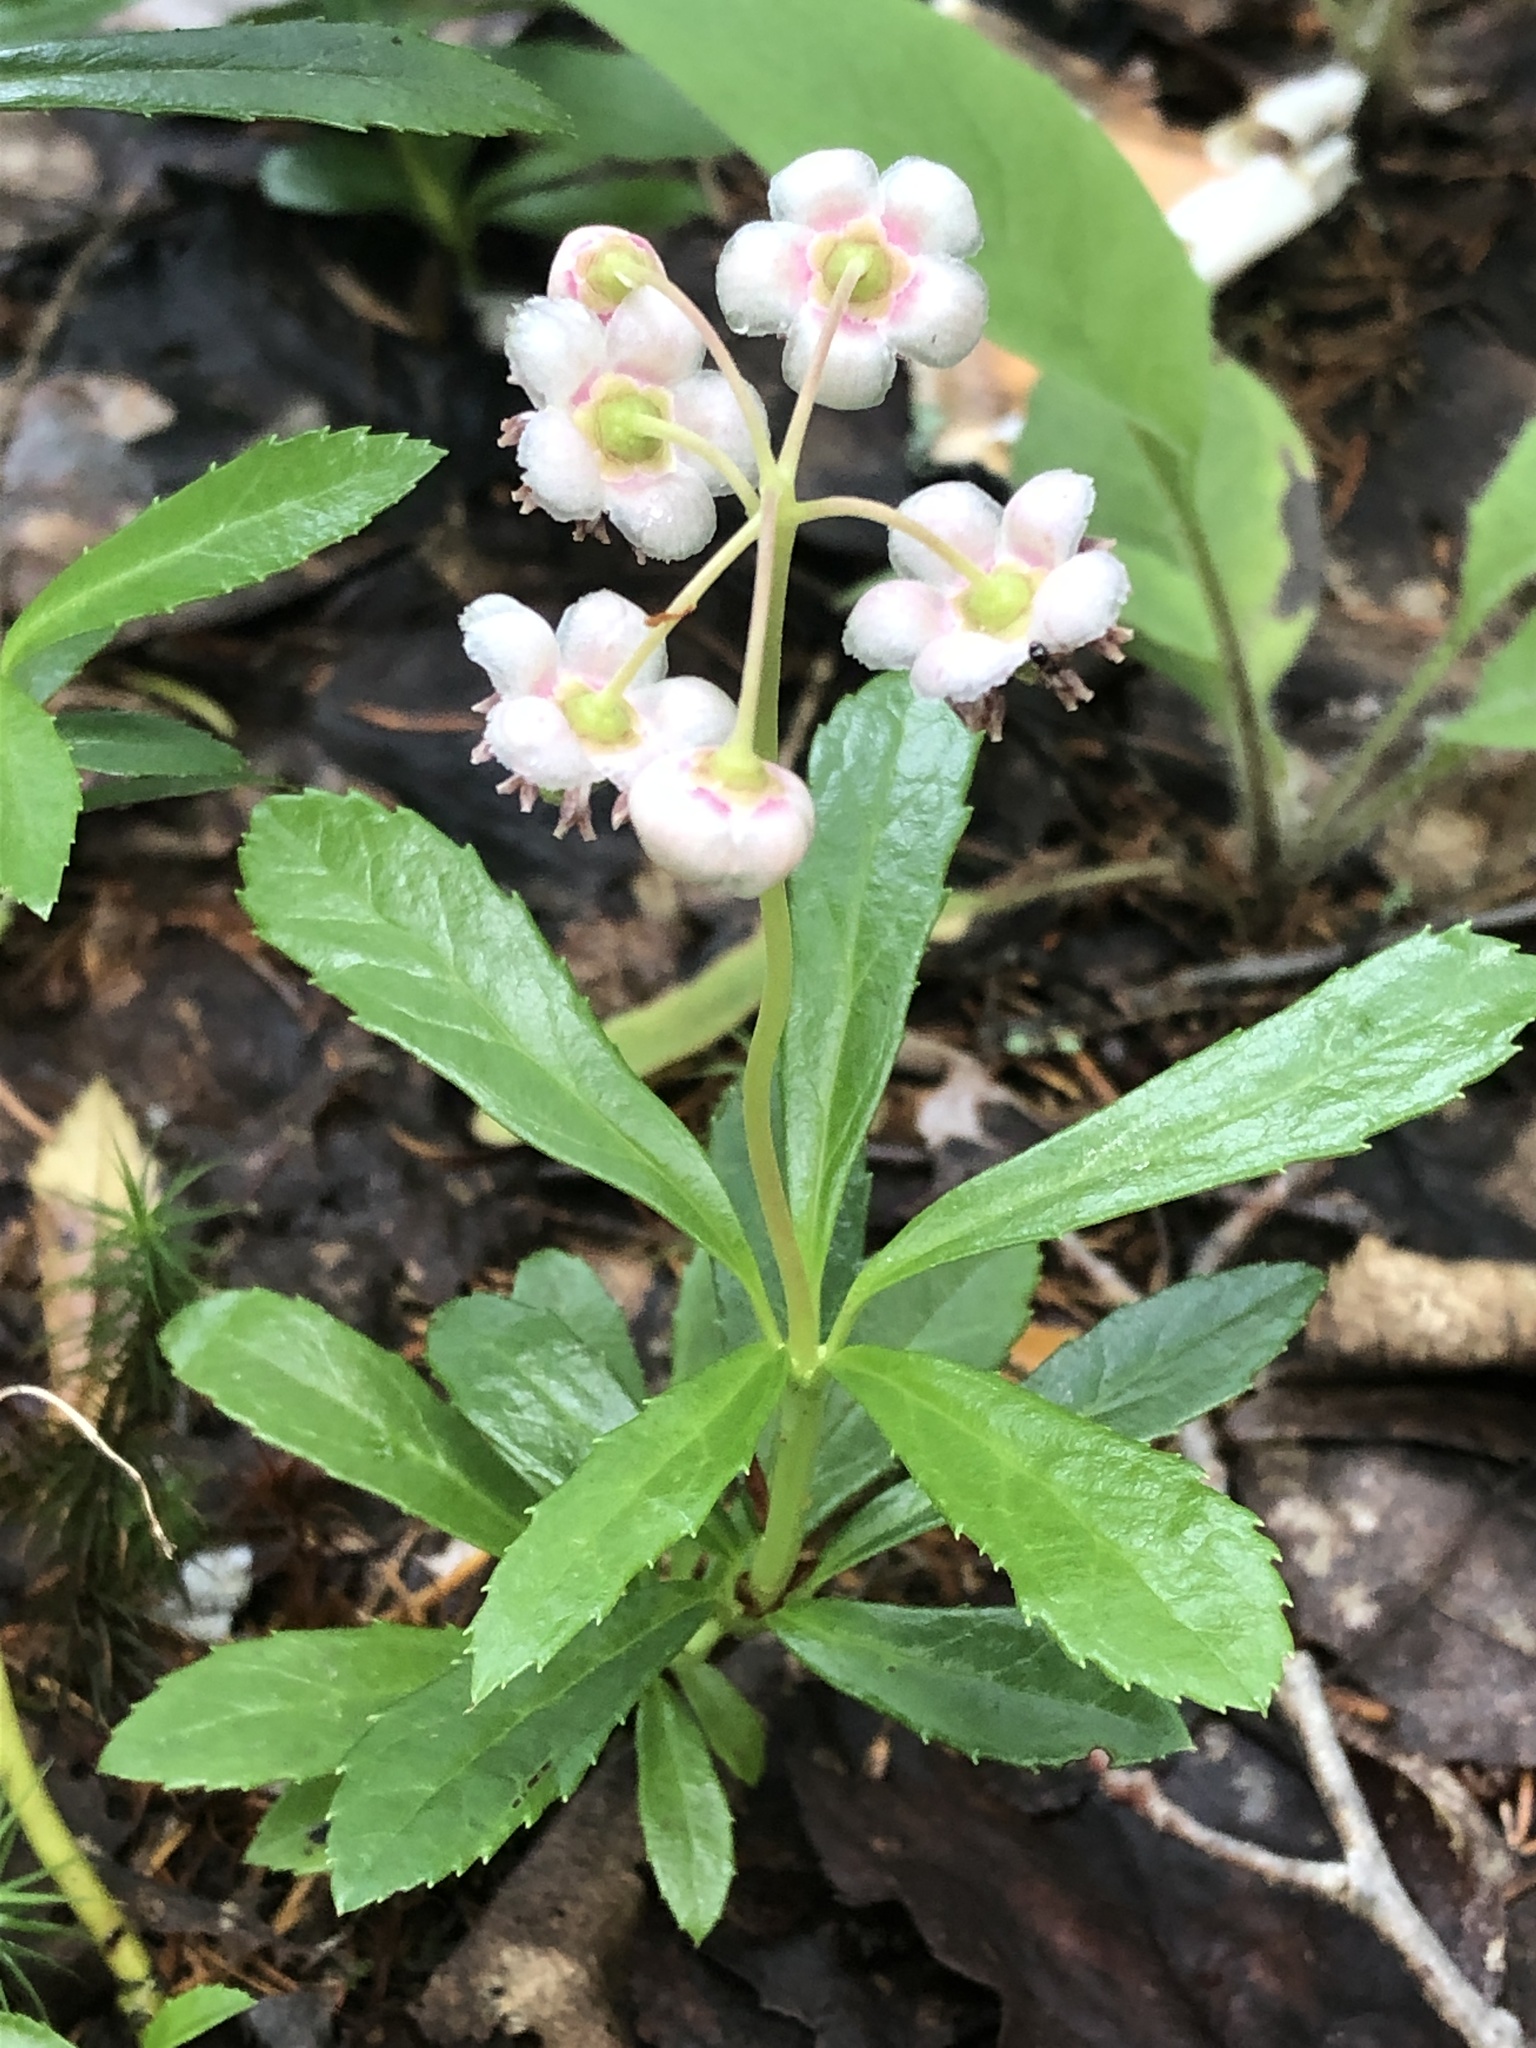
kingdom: Plantae
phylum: Tracheophyta
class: Magnoliopsida
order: Ericales
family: Ericaceae
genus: Chimaphila
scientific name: Chimaphila umbellata
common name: Pipsissewa
